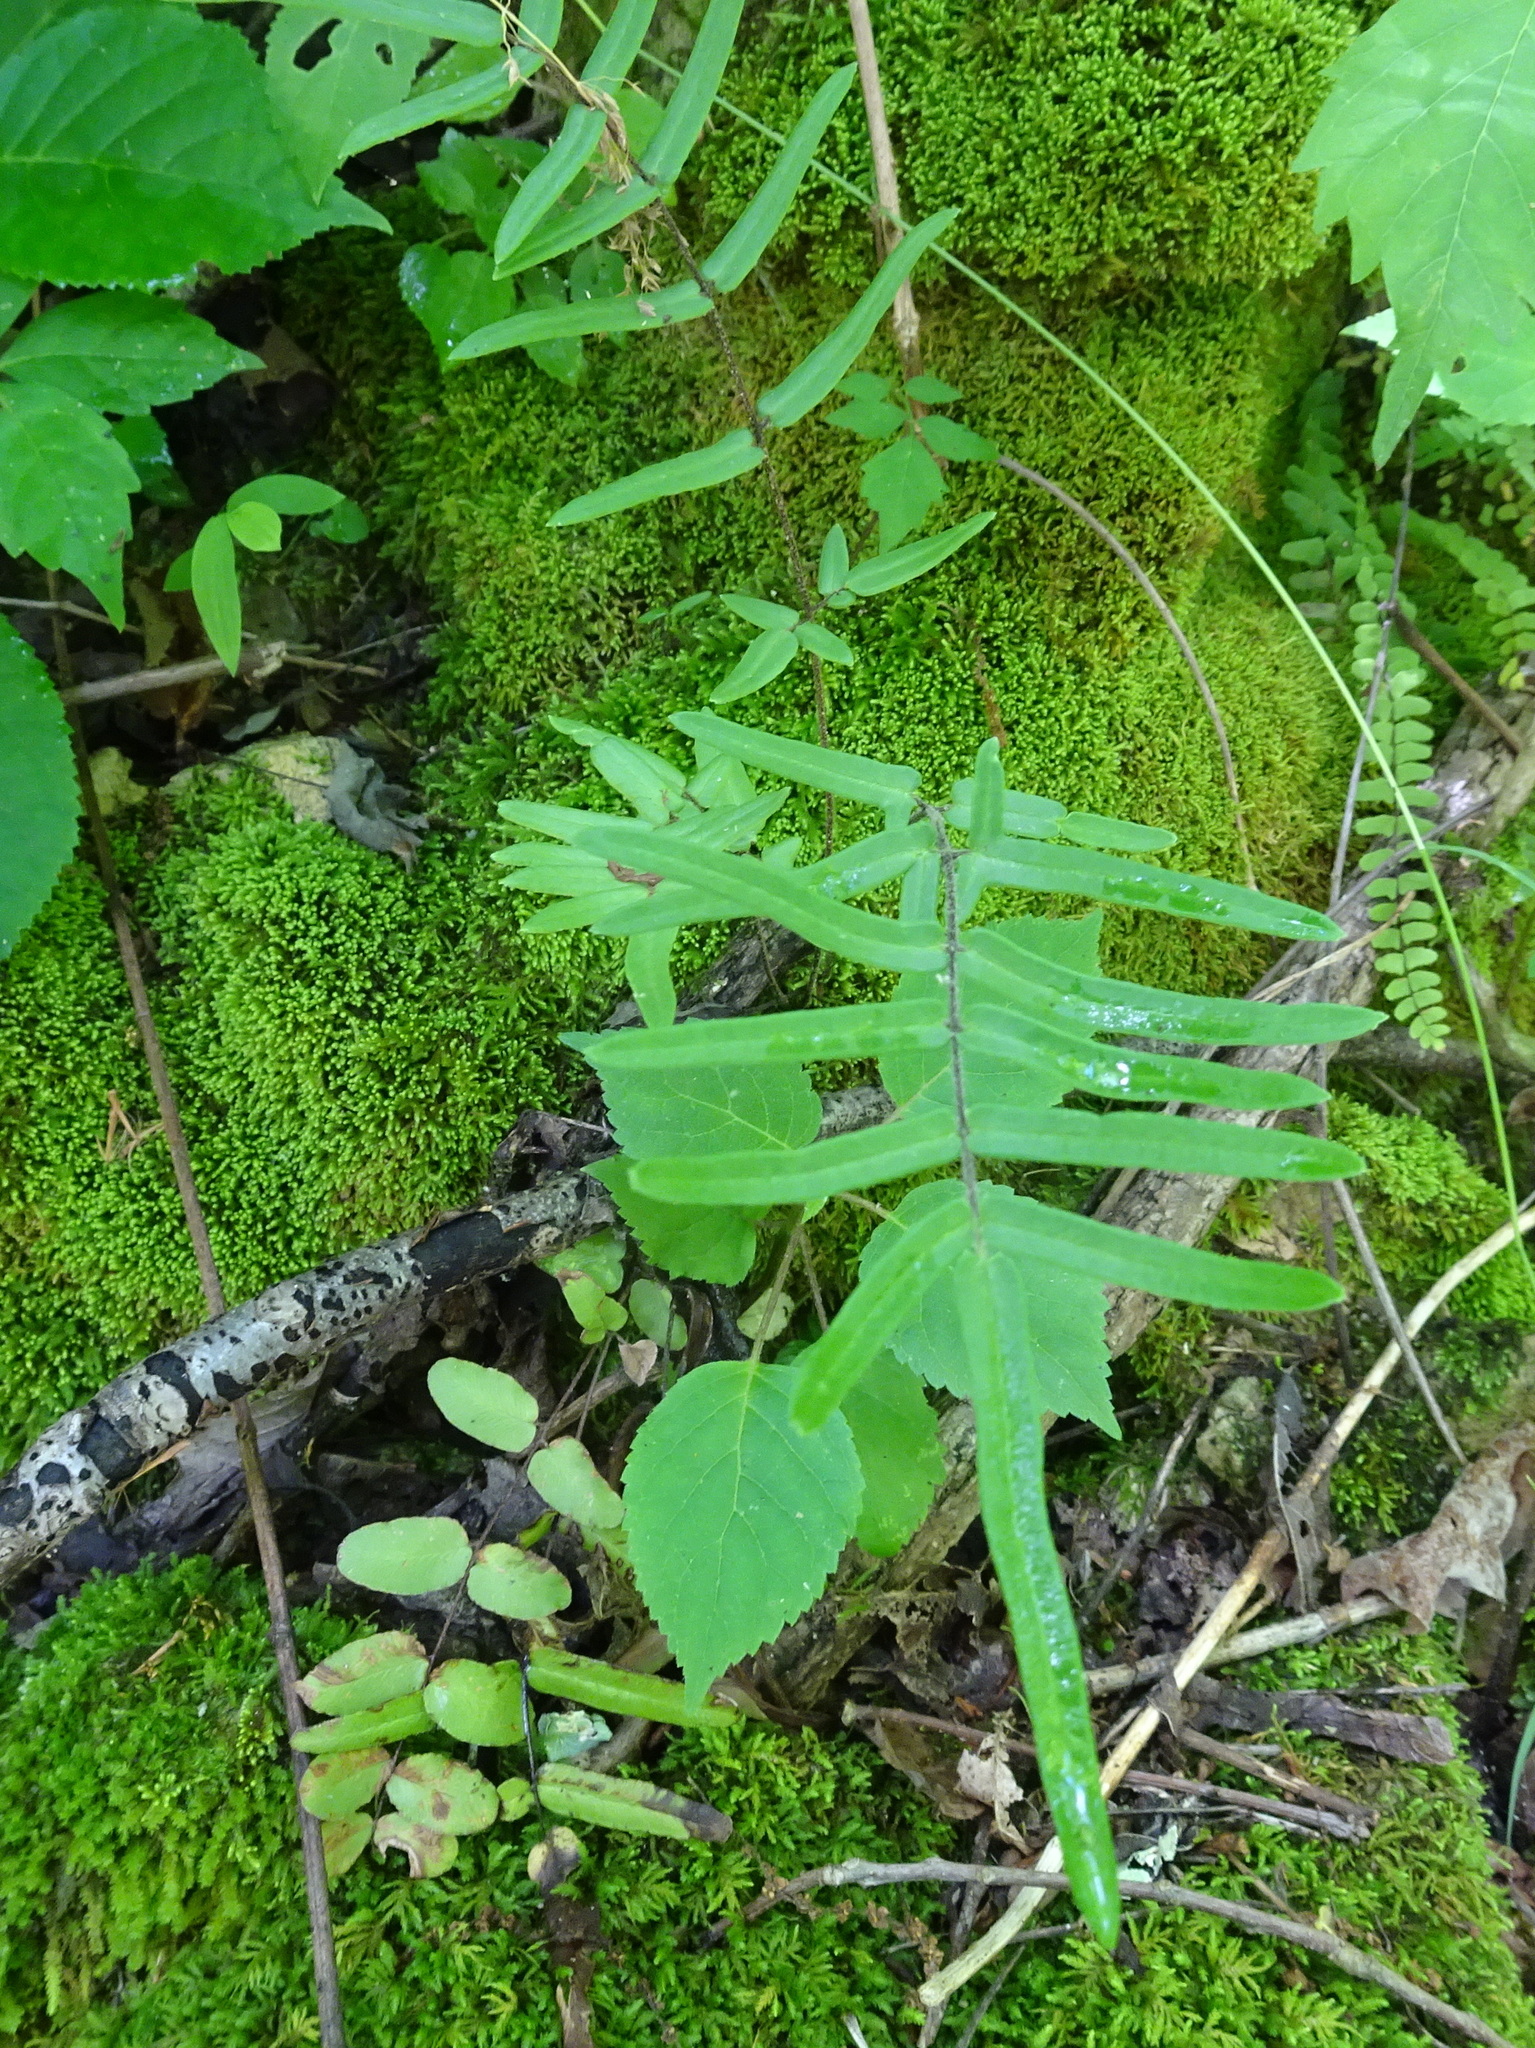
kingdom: Plantae
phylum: Tracheophyta
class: Polypodiopsida
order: Polypodiales
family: Pteridaceae
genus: Pellaea
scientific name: Pellaea atropurpurea
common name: Hairy cliffbrake
